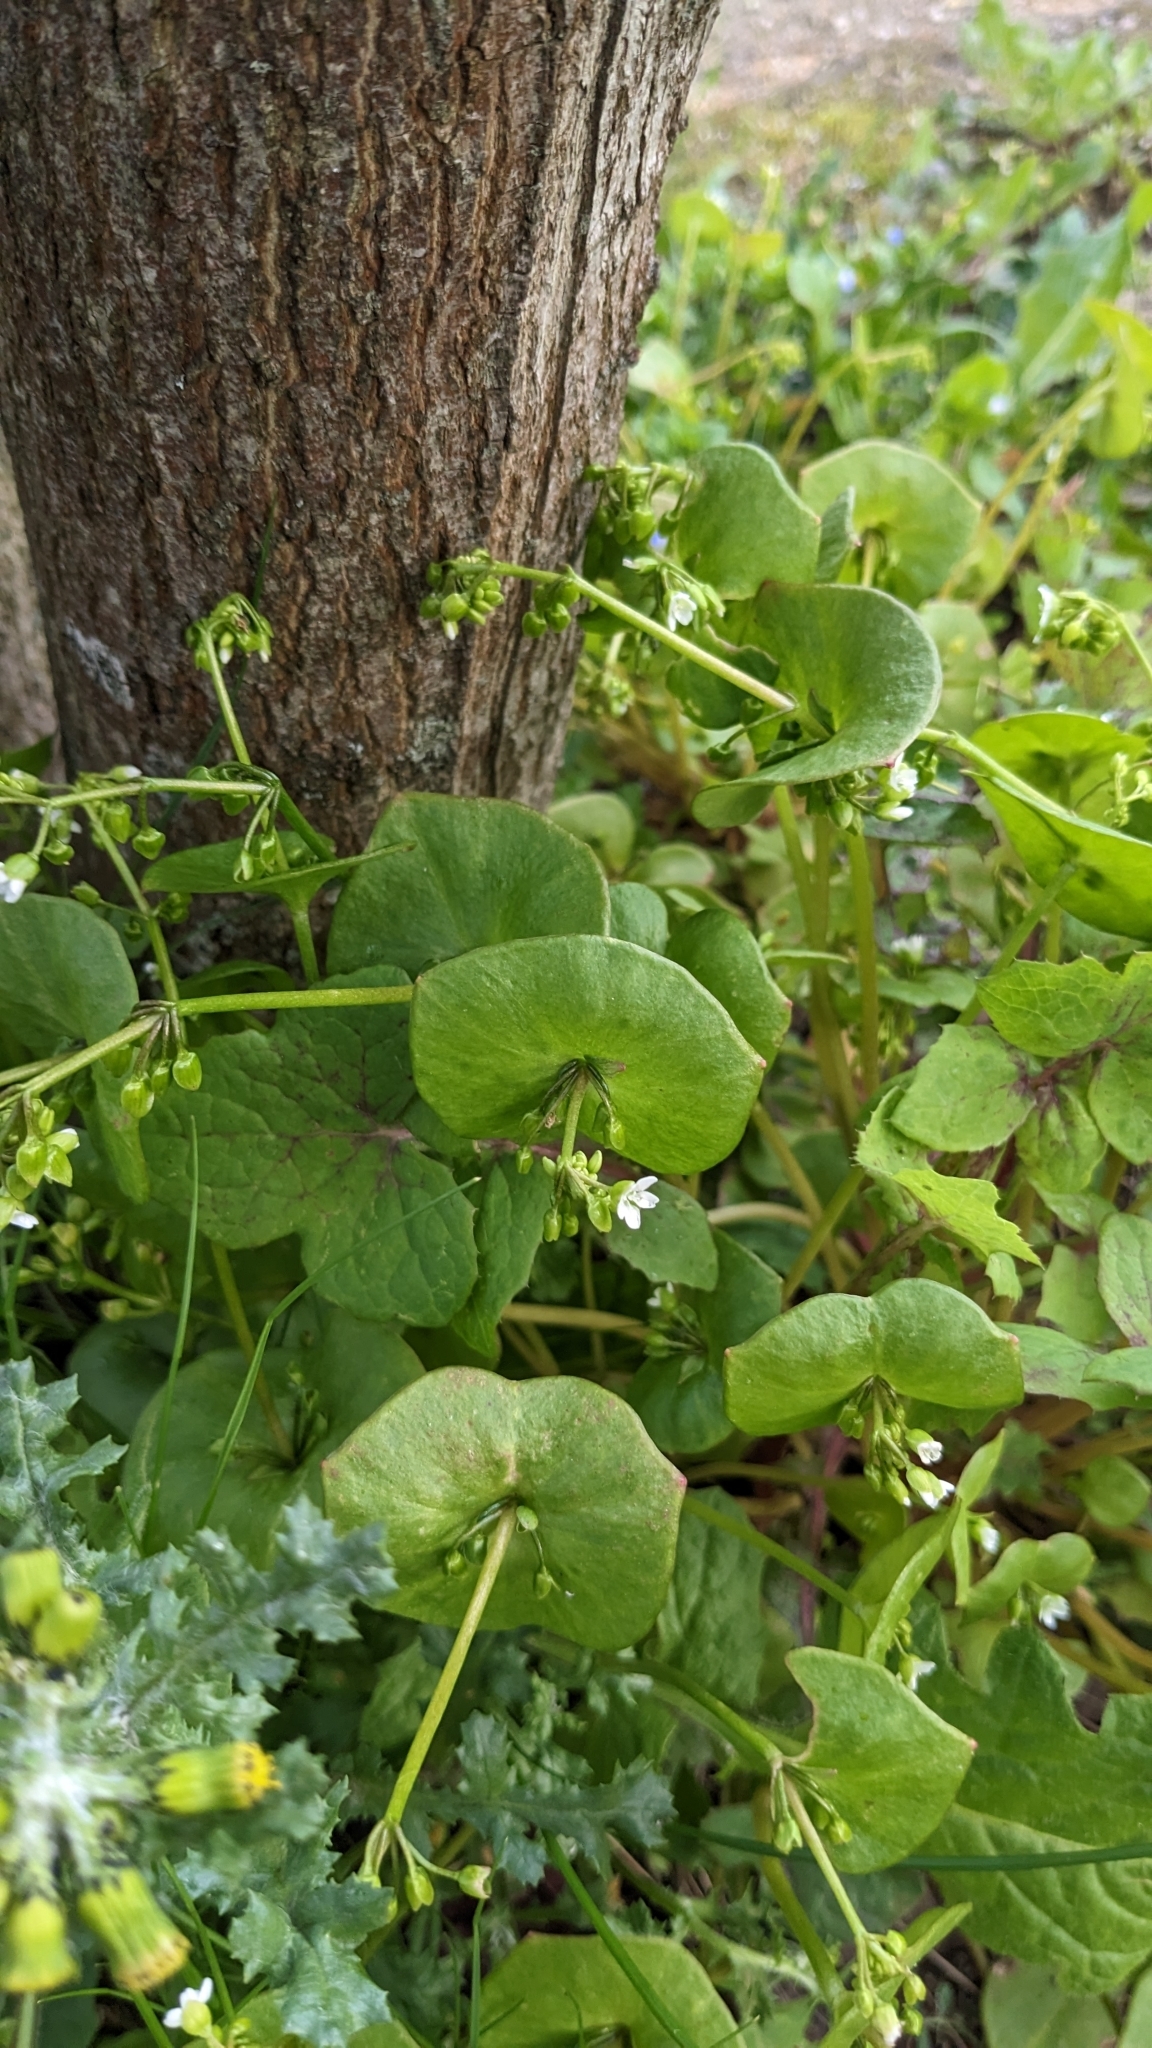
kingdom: Plantae
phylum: Tracheophyta
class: Magnoliopsida
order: Caryophyllales
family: Montiaceae
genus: Claytonia
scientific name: Claytonia perfoliata
